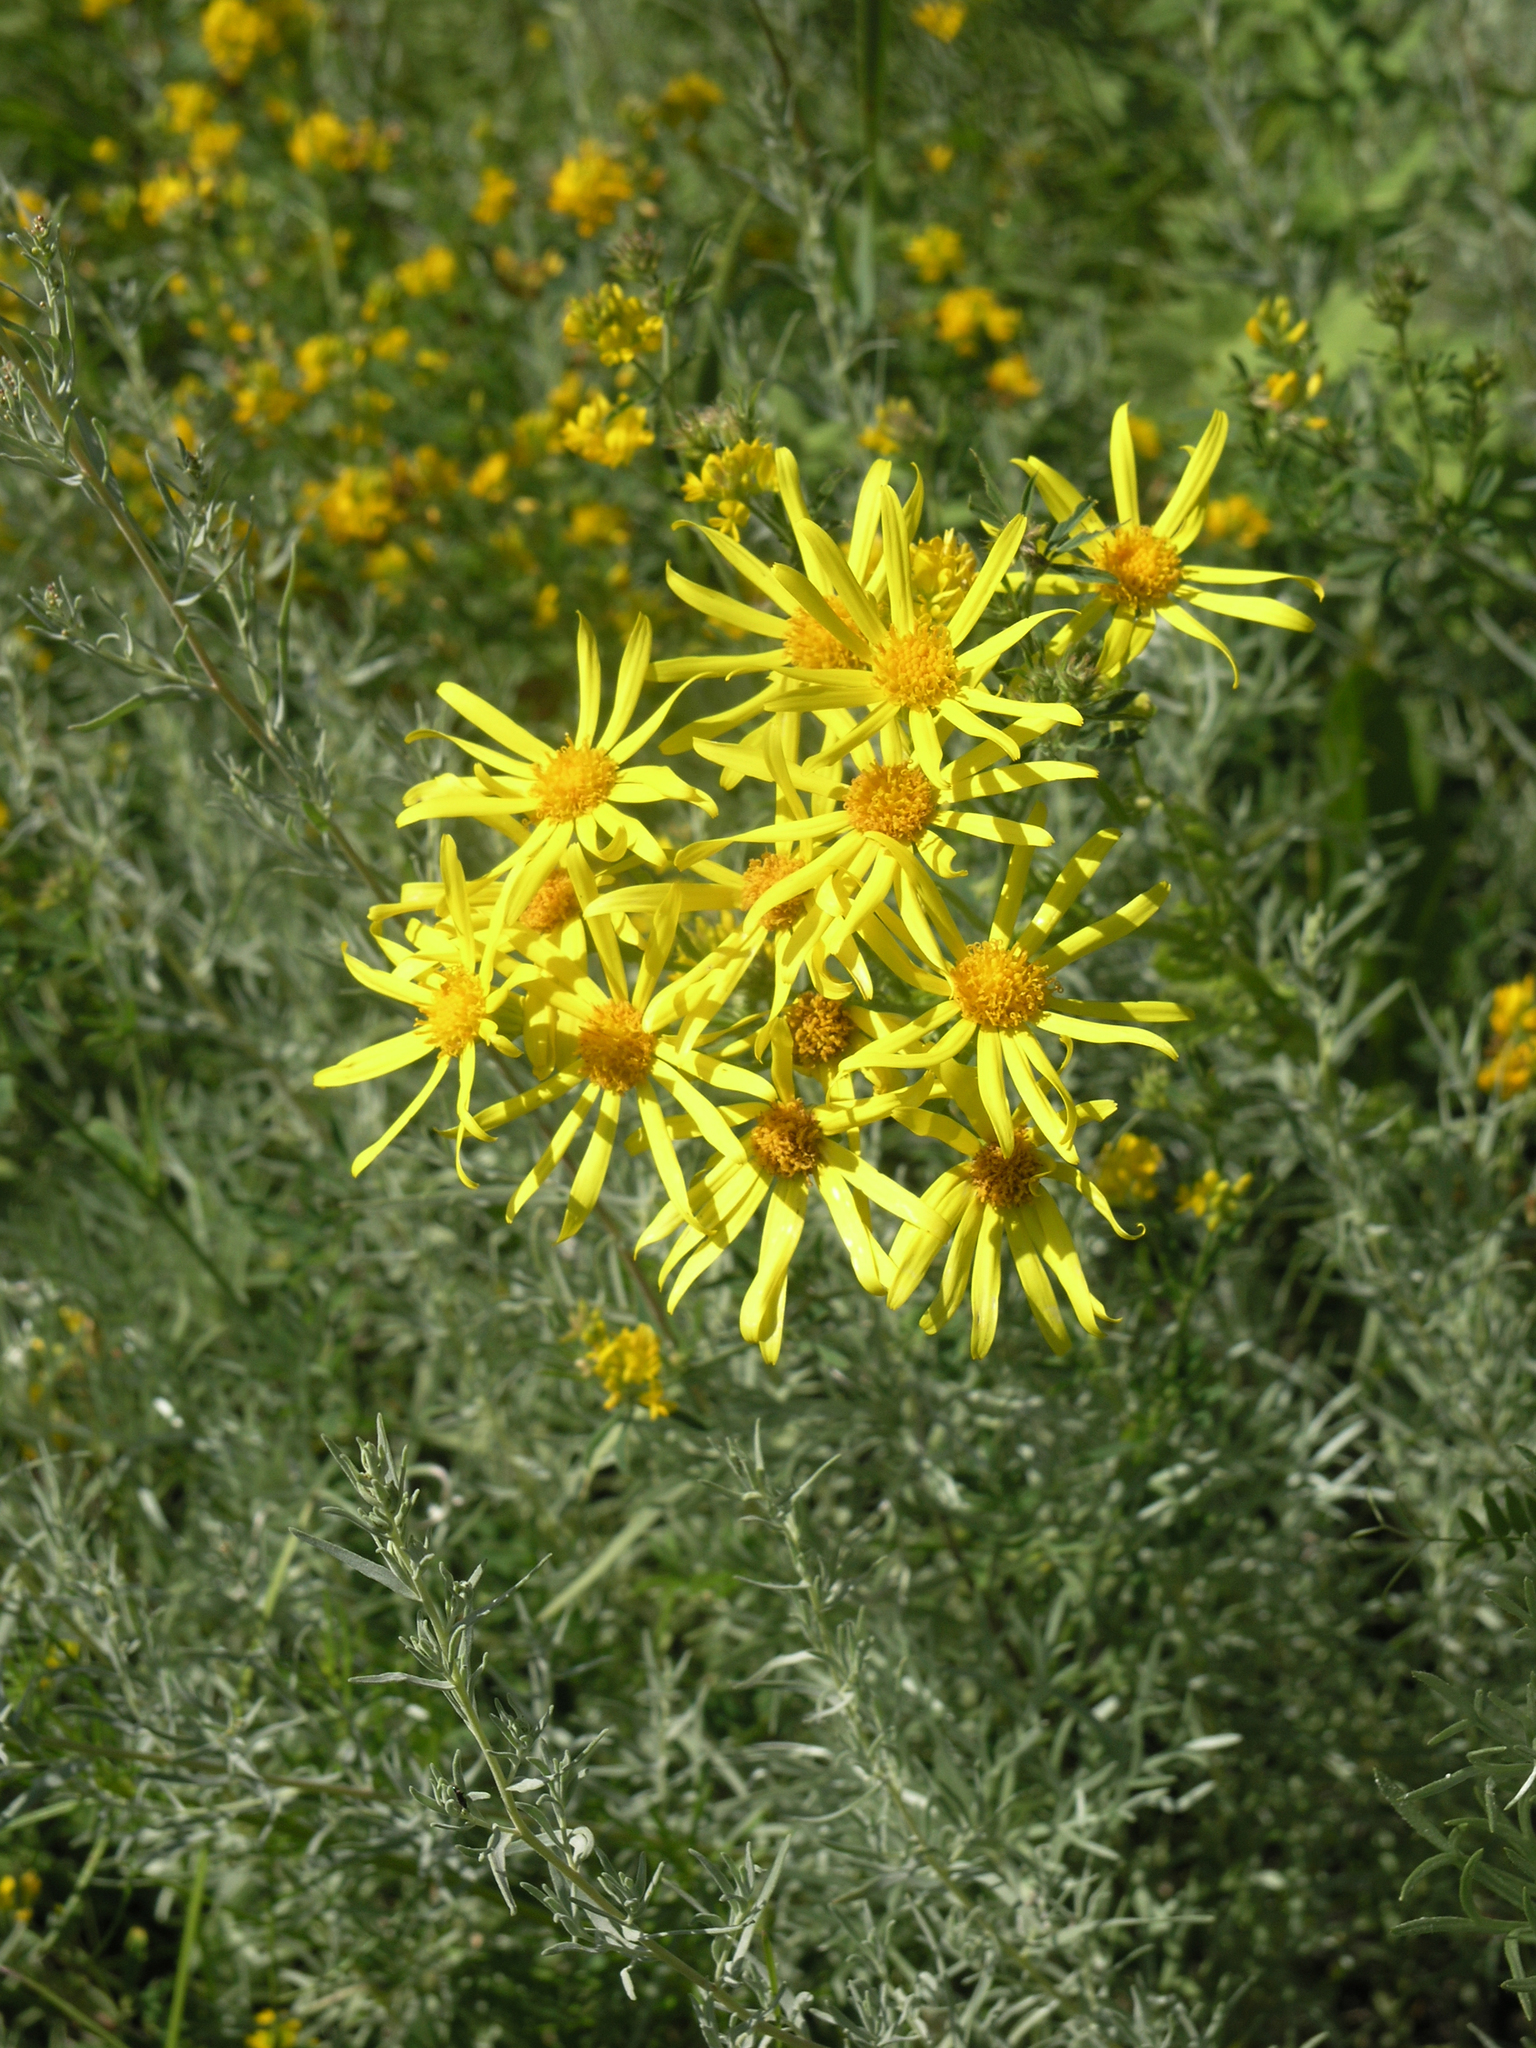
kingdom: Plantae
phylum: Tracheophyta
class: Magnoliopsida
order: Asterales
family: Asteraceae
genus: Jacobaea
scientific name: Jacobaea erucifolia
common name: Hoary ragwort
